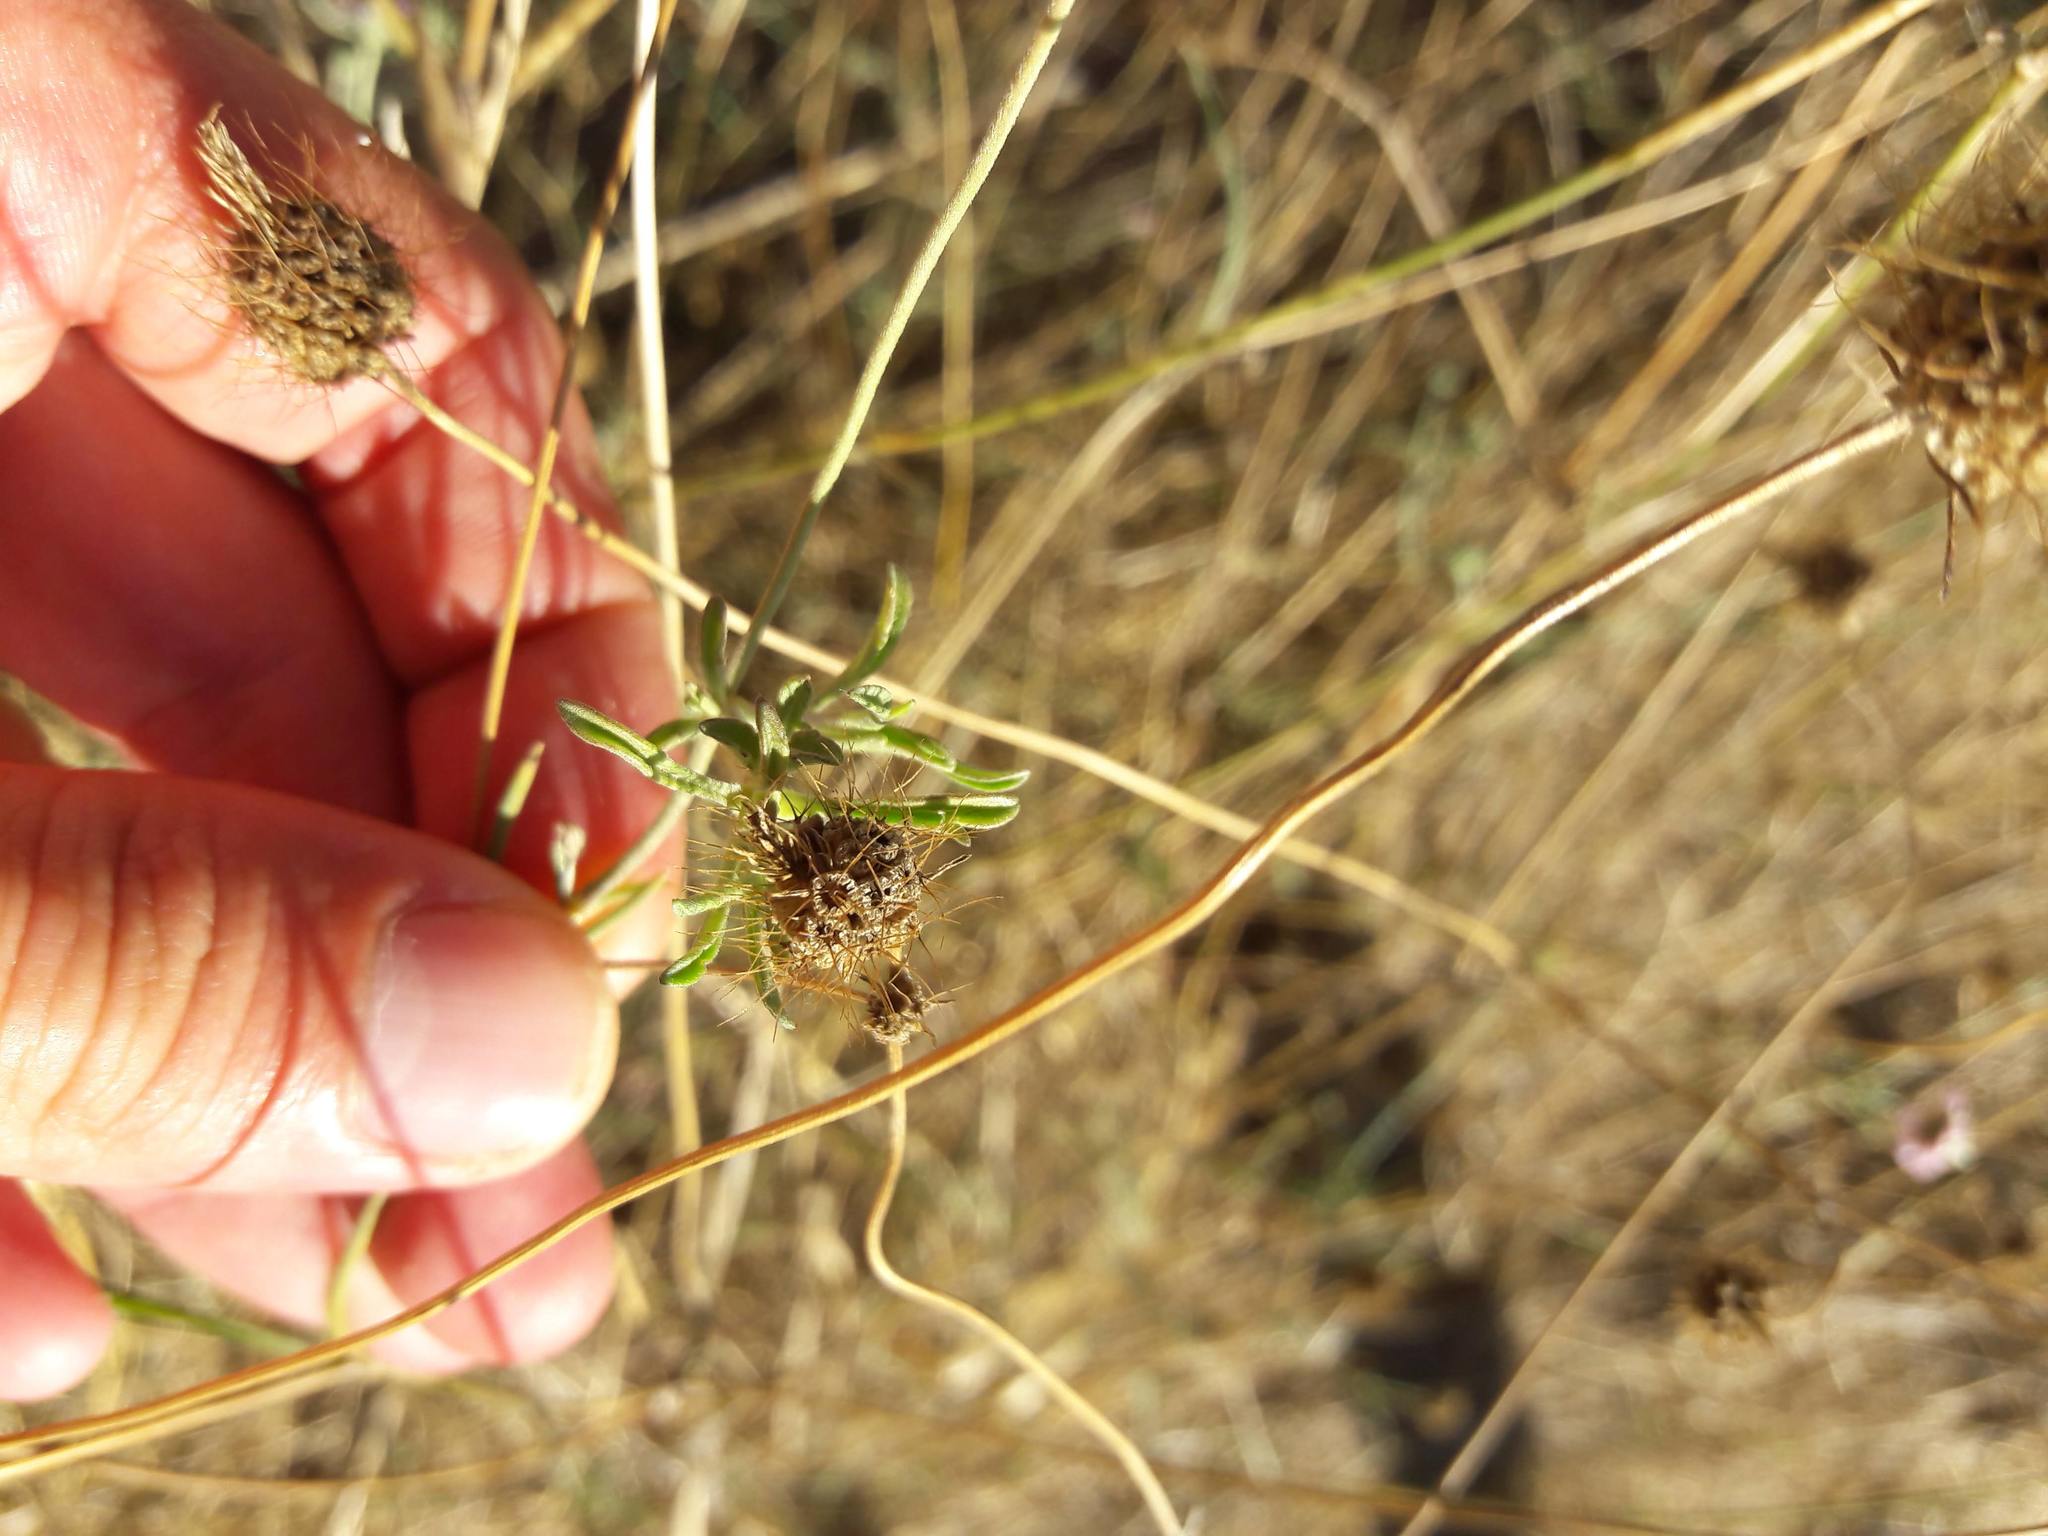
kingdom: Plantae
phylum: Tracheophyta
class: Magnoliopsida
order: Dipsacales
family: Caprifoliaceae
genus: Sixalix
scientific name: Sixalix atropurpurea
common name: Sweet scabious
